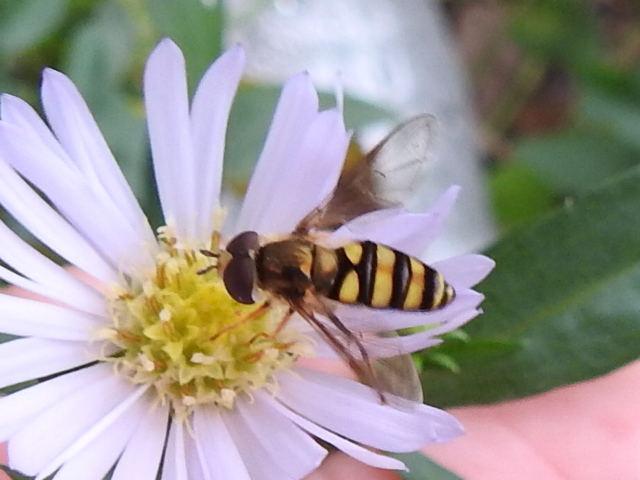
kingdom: Animalia
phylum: Arthropoda
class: Insecta
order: Diptera
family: Syrphidae
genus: Eupeodes
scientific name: Eupeodes
